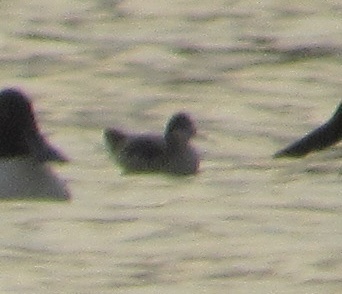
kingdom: Animalia
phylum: Chordata
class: Aves
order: Charadriiformes
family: Scolopacidae
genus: Phalaropus
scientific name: Phalaropus tricolor
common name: Wilson's phalarope
